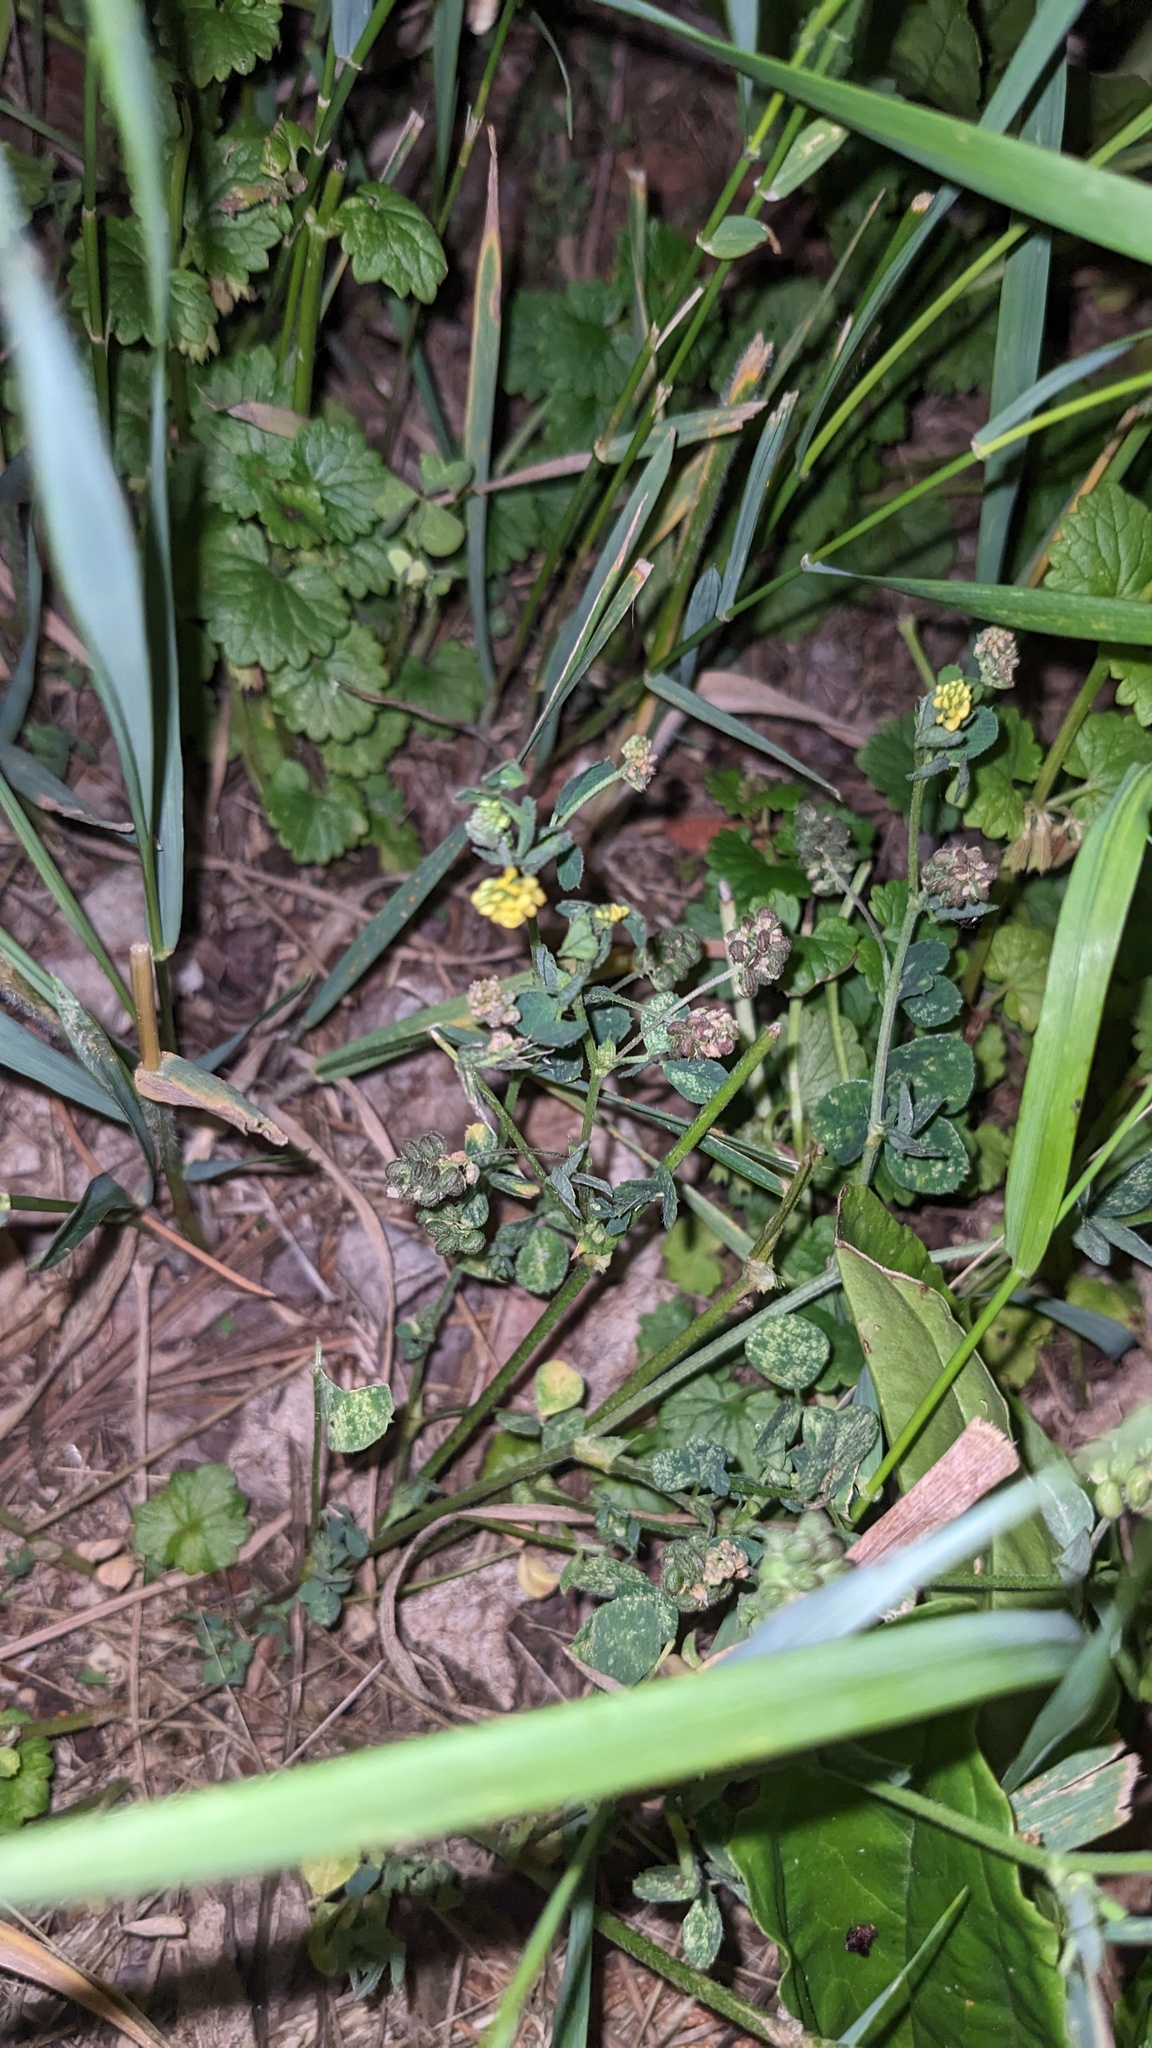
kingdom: Plantae
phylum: Tracheophyta
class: Magnoliopsida
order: Fabales
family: Fabaceae
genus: Medicago
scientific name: Medicago lupulina
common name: Black medick
